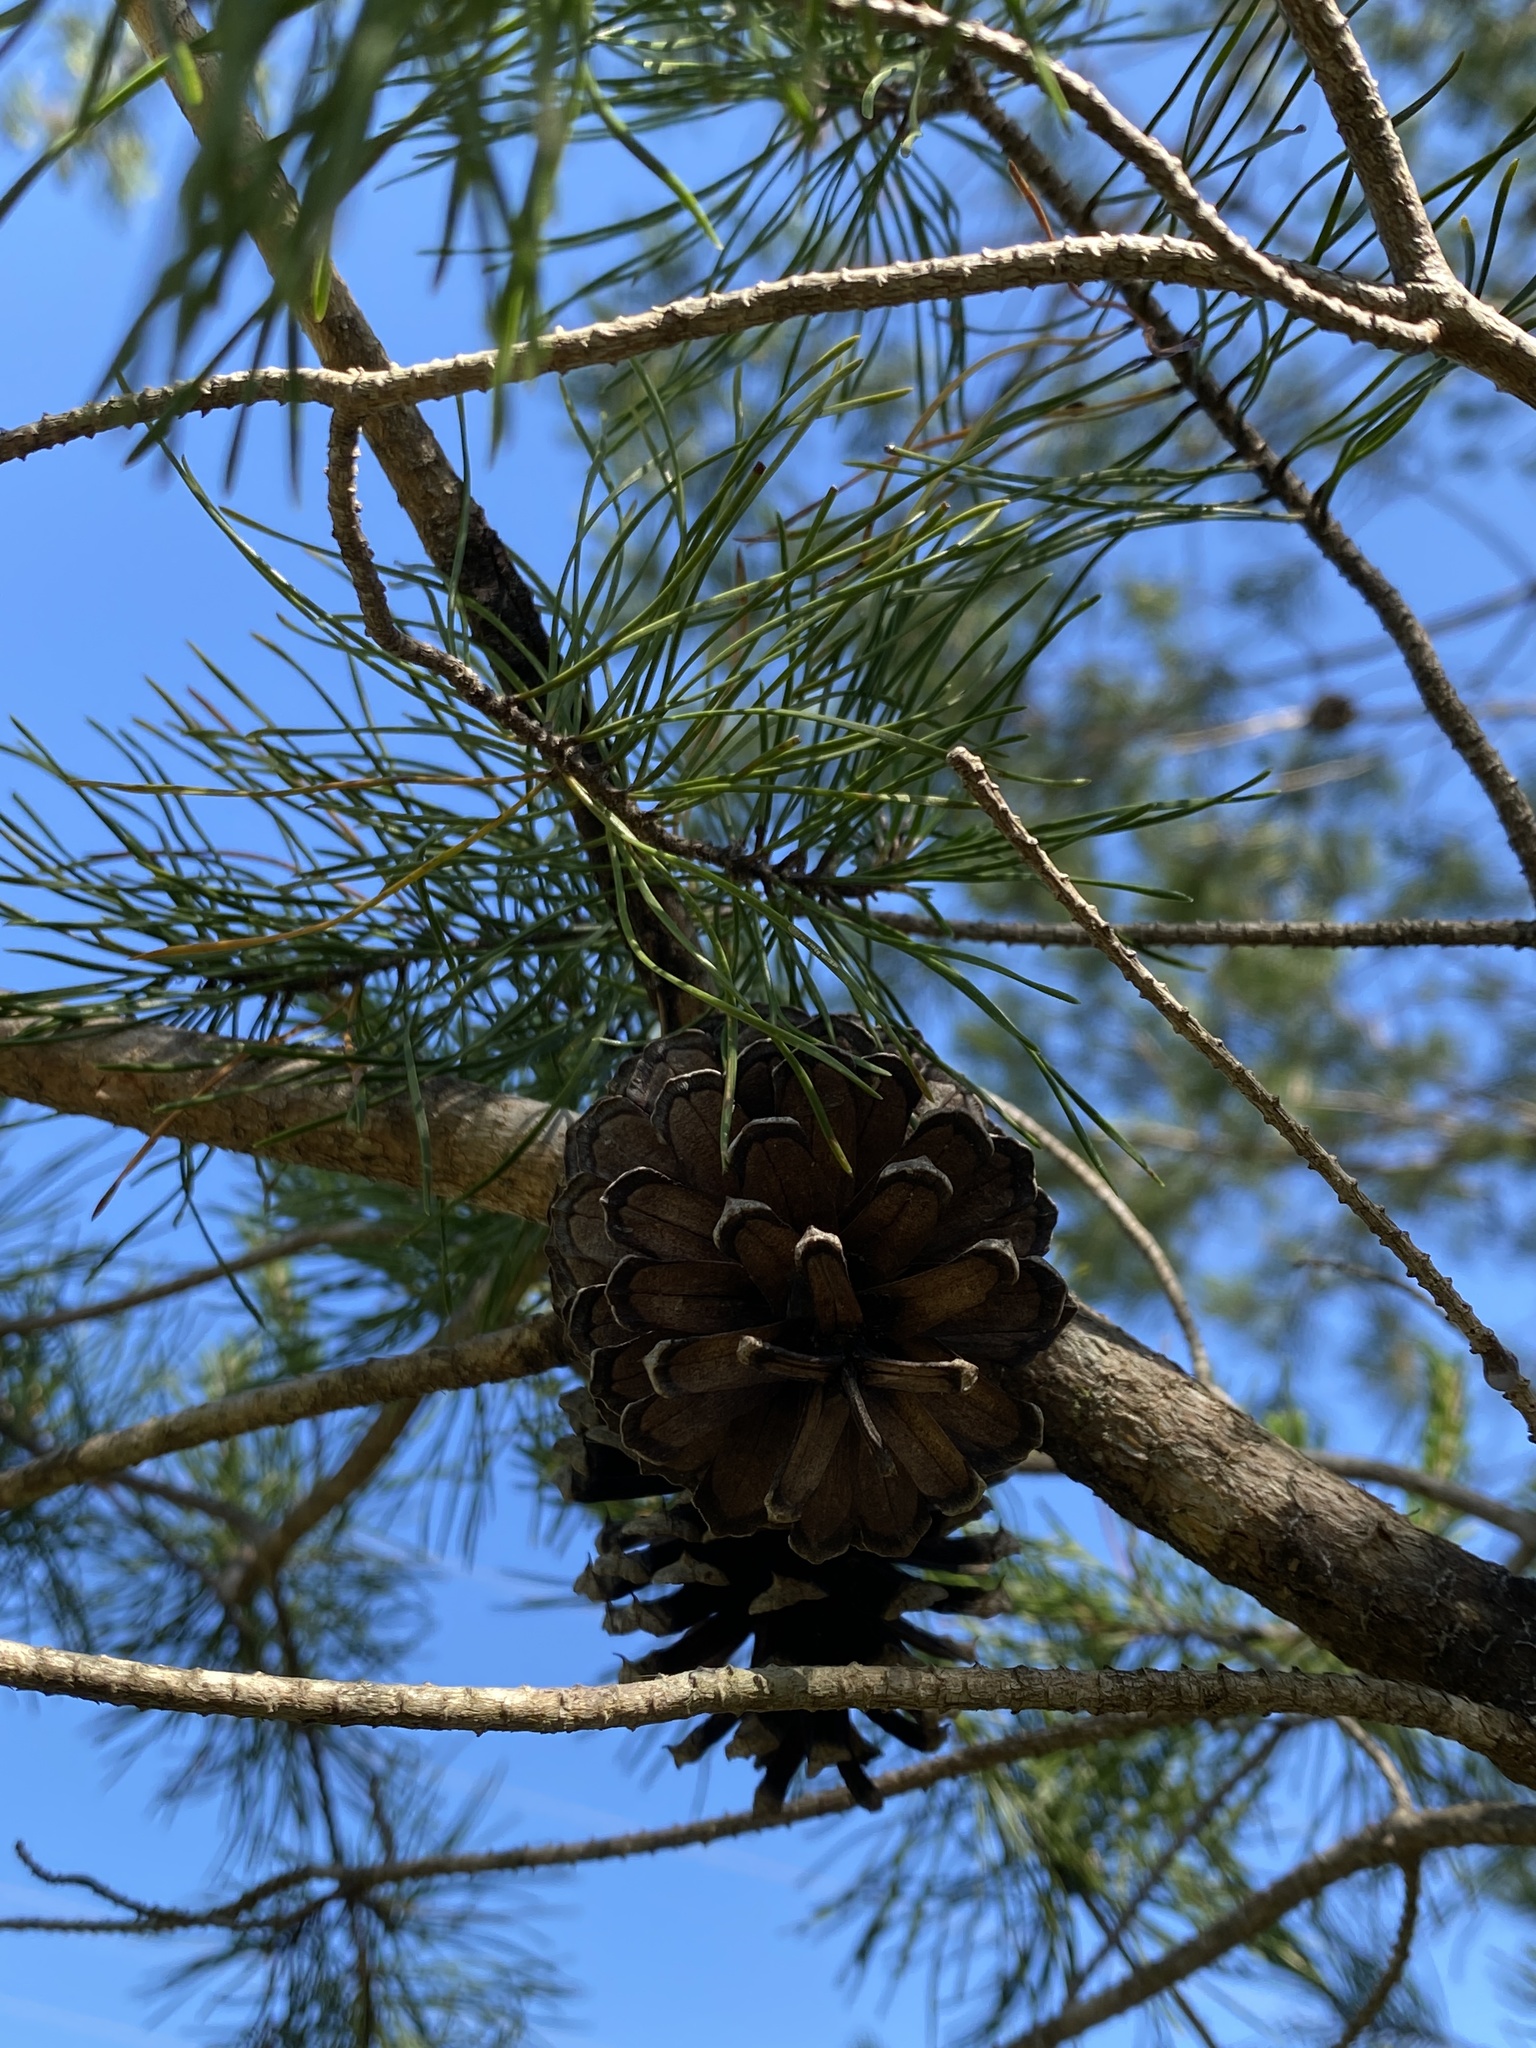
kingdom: Plantae
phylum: Tracheophyta
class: Pinopsida
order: Pinales
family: Pinaceae
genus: Pinus
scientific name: Pinus clausa
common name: Sand pine
